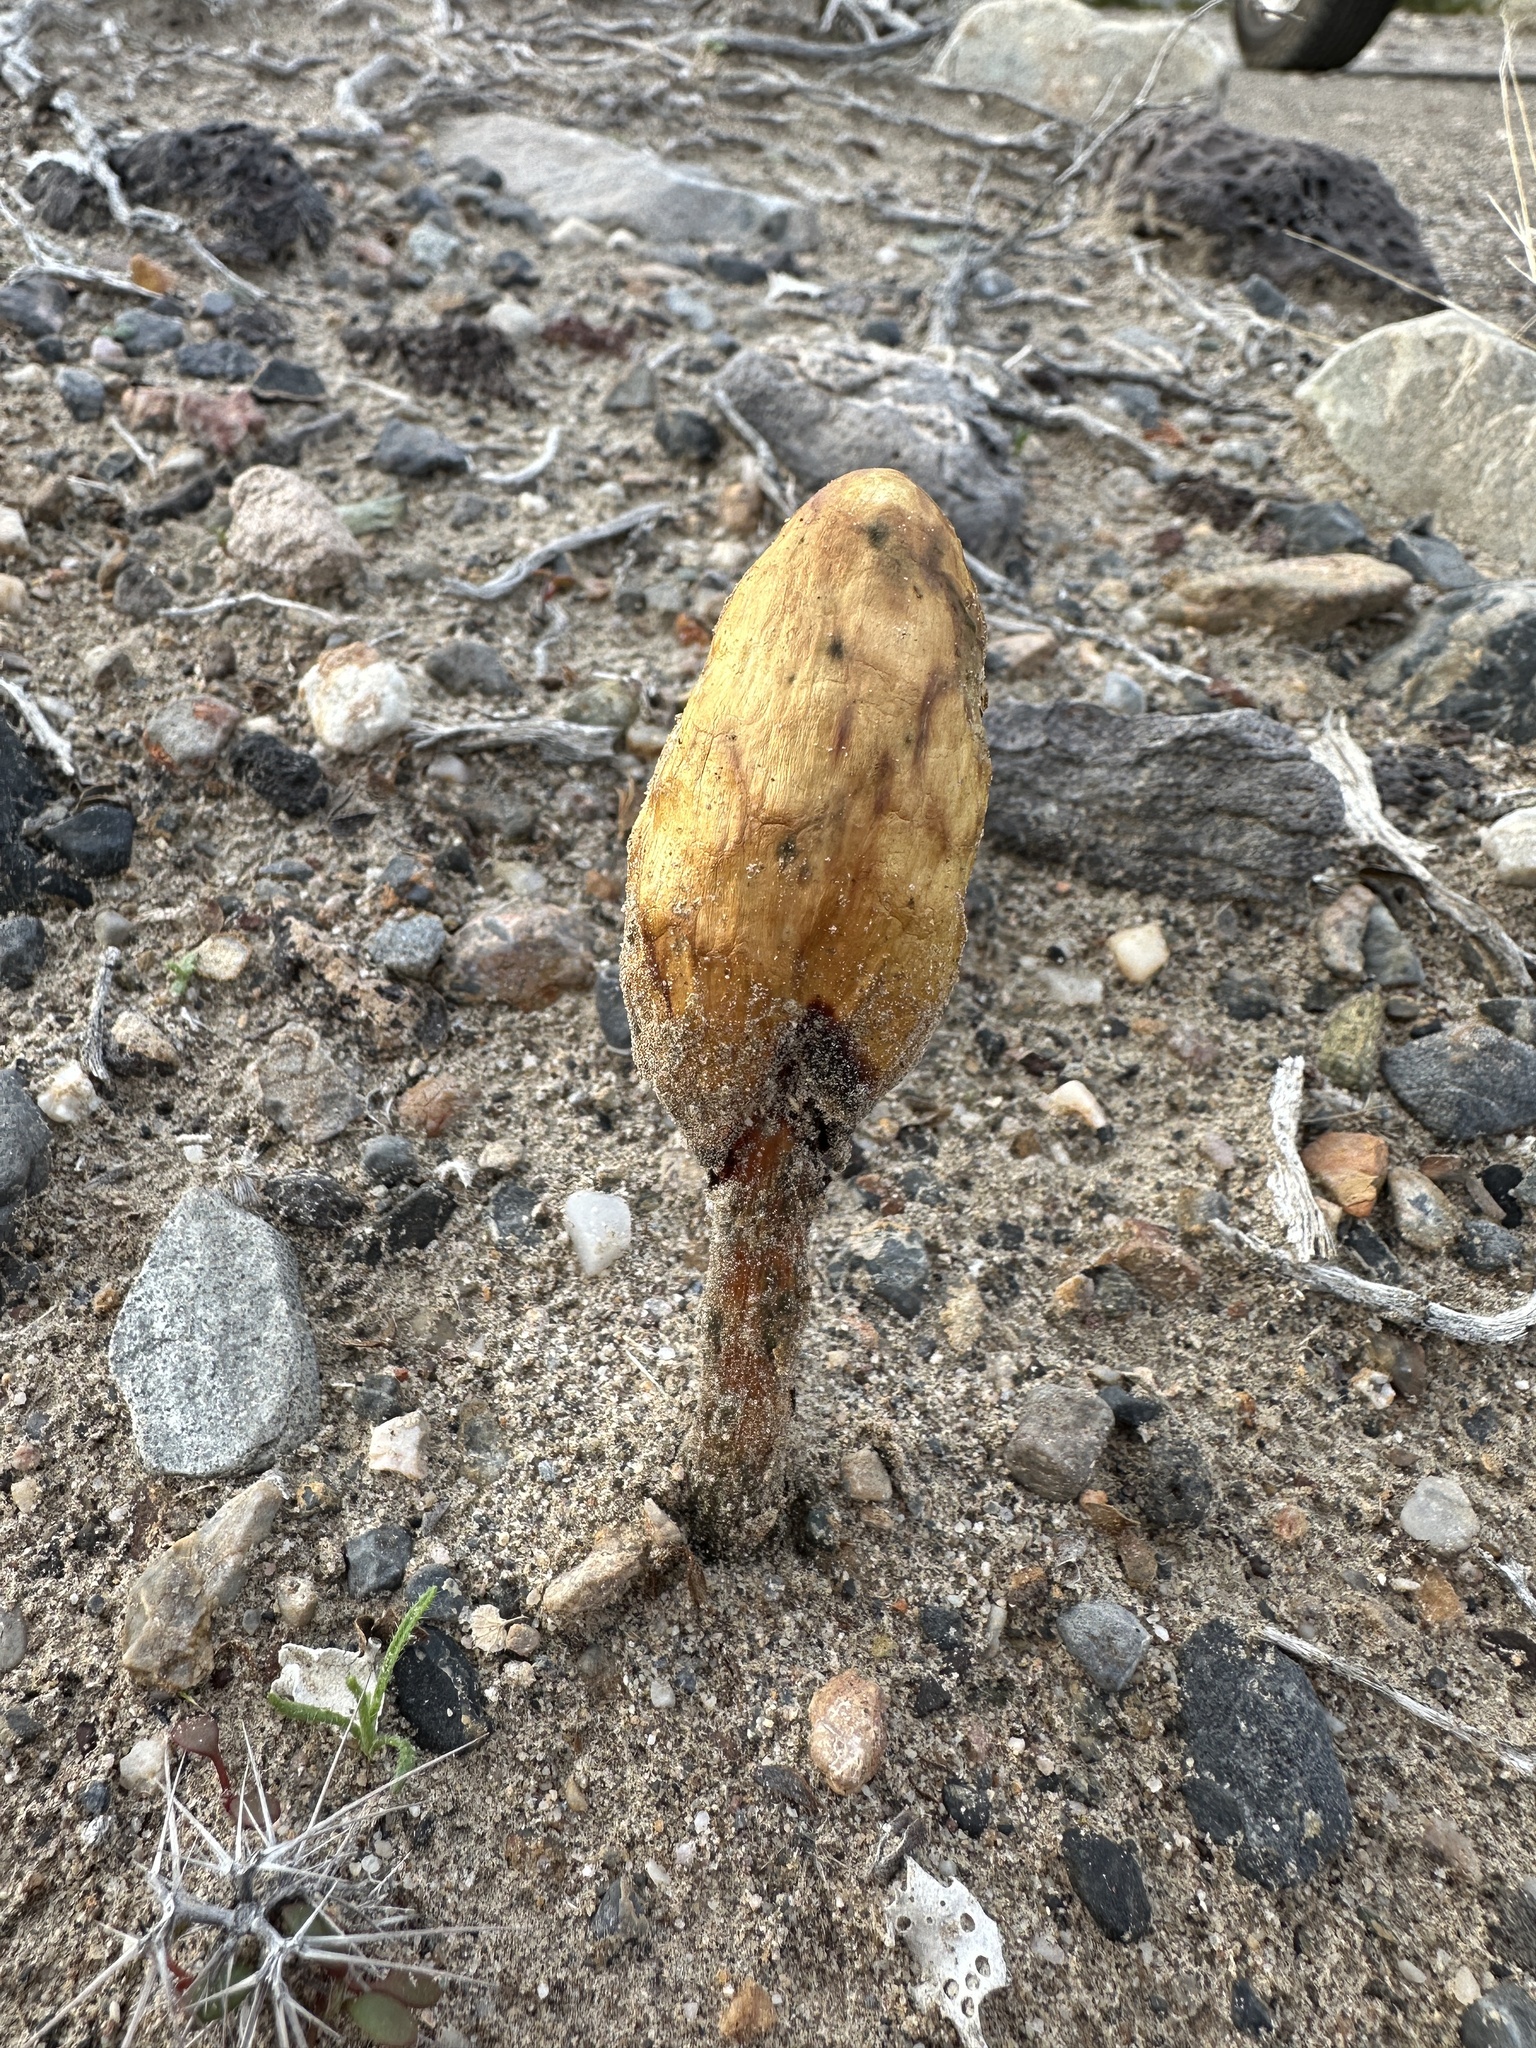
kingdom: Fungi
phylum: Basidiomycota
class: Agaricomycetes
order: Agaricales
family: Agaricaceae
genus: Podaxis
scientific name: Podaxis pistillaris
